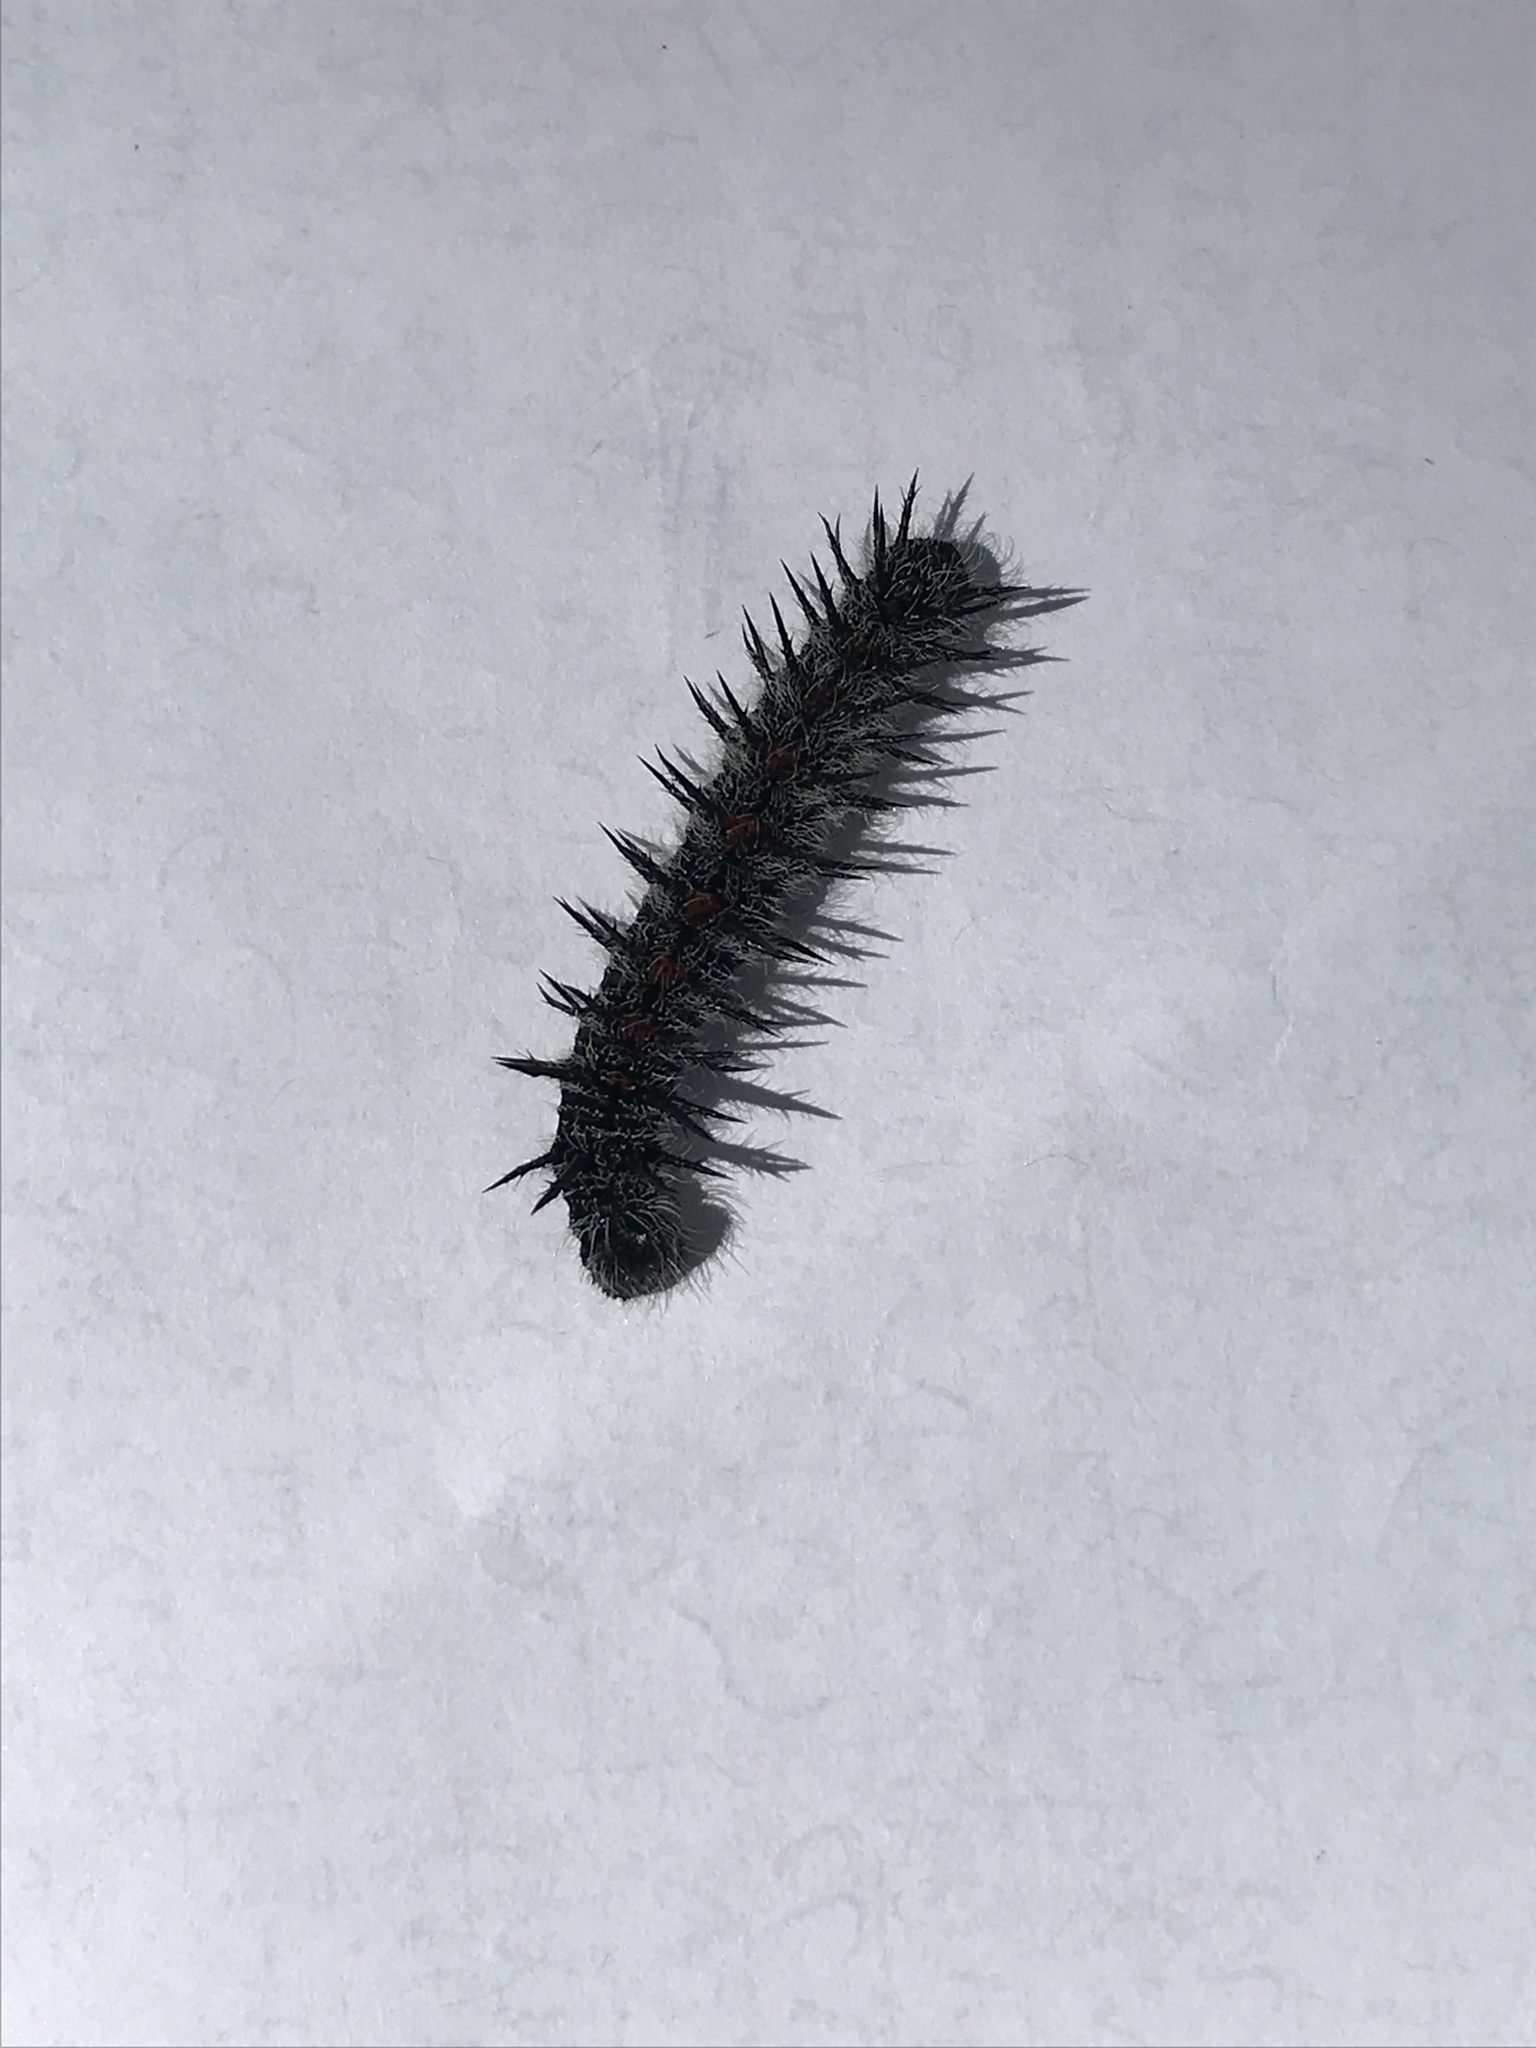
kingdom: Animalia
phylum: Arthropoda
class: Insecta
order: Lepidoptera
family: Nymphalidae
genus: Nymphalis
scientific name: Nymphalis antiopa
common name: Camberwell beauty
